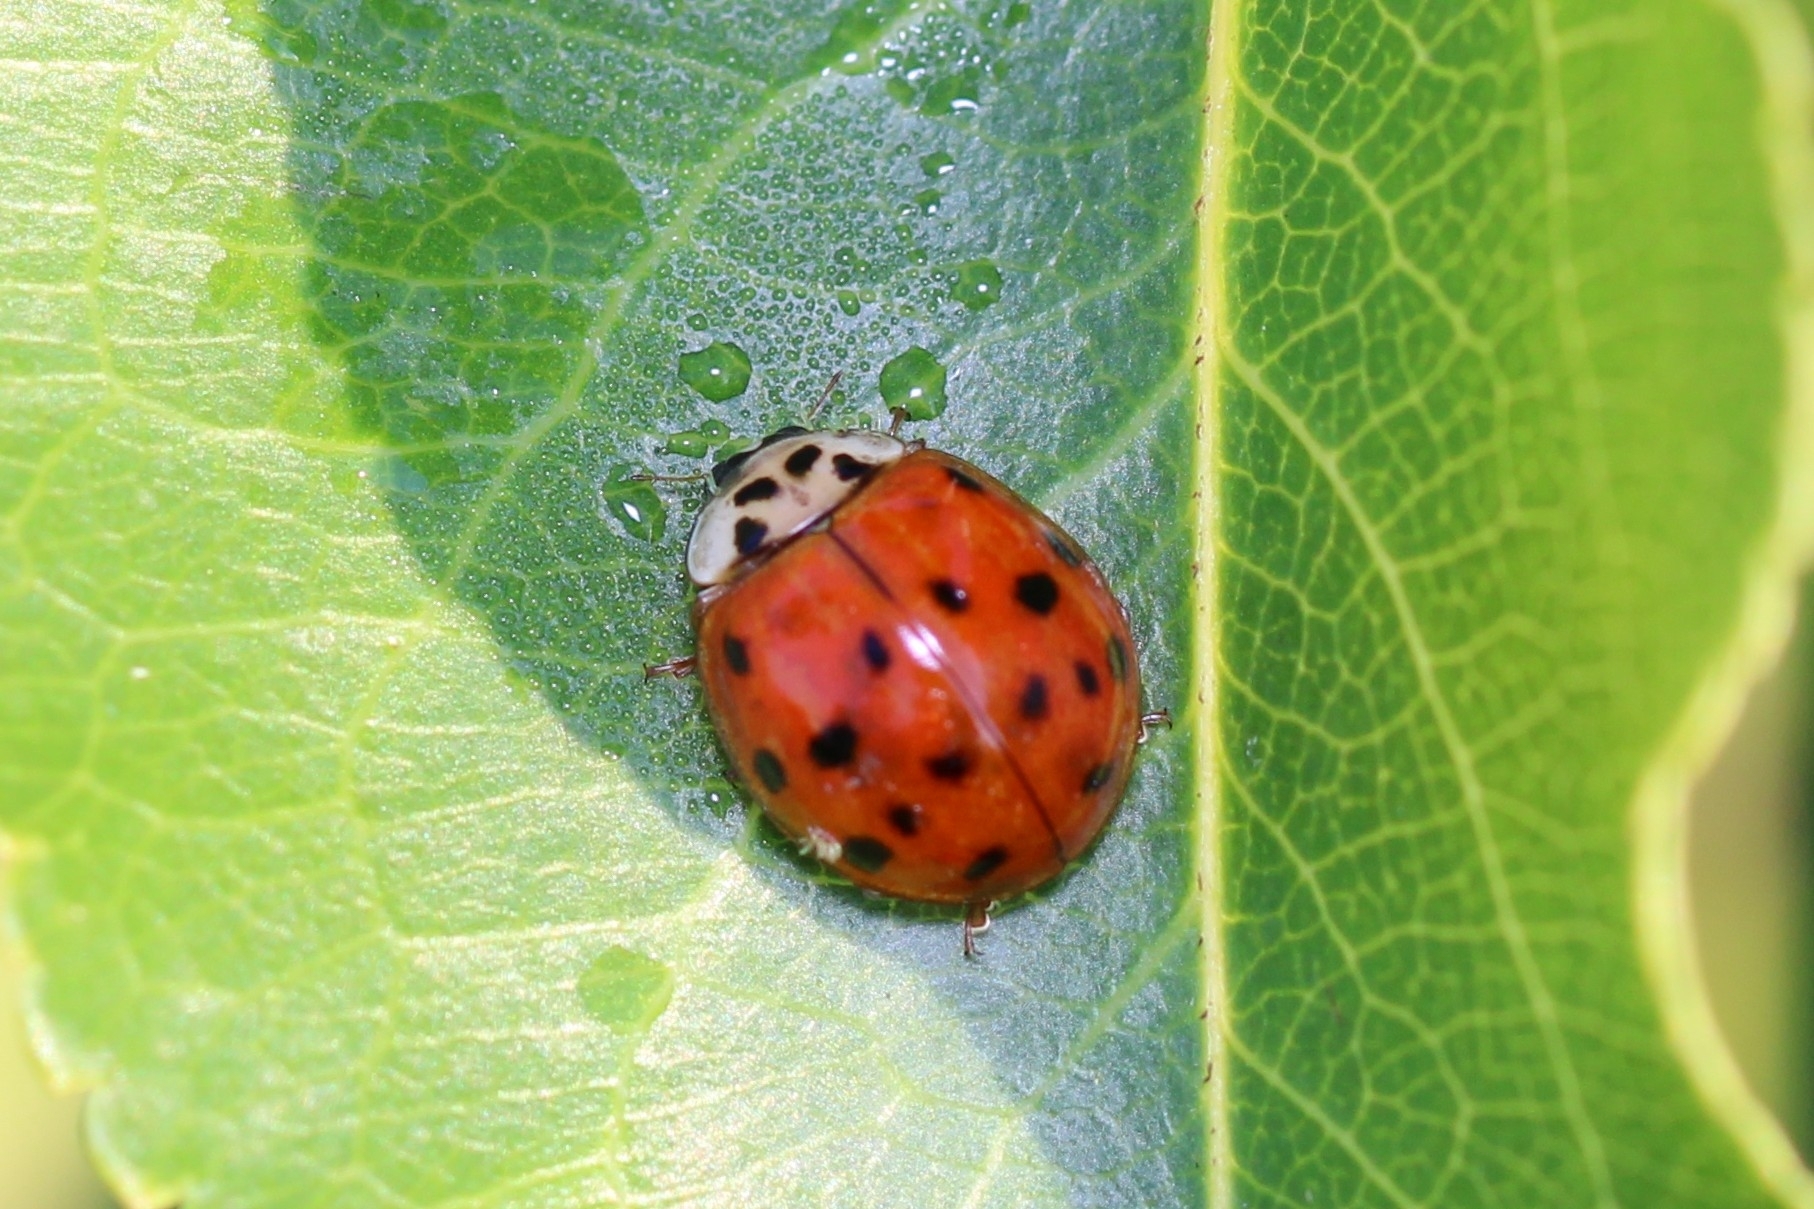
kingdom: Animalia
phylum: Arthropoda
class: Insecta
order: Coleoptera
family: Coccinellidae
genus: Harmonia
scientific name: Harmonia axyridis
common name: Harlequin ladybird
